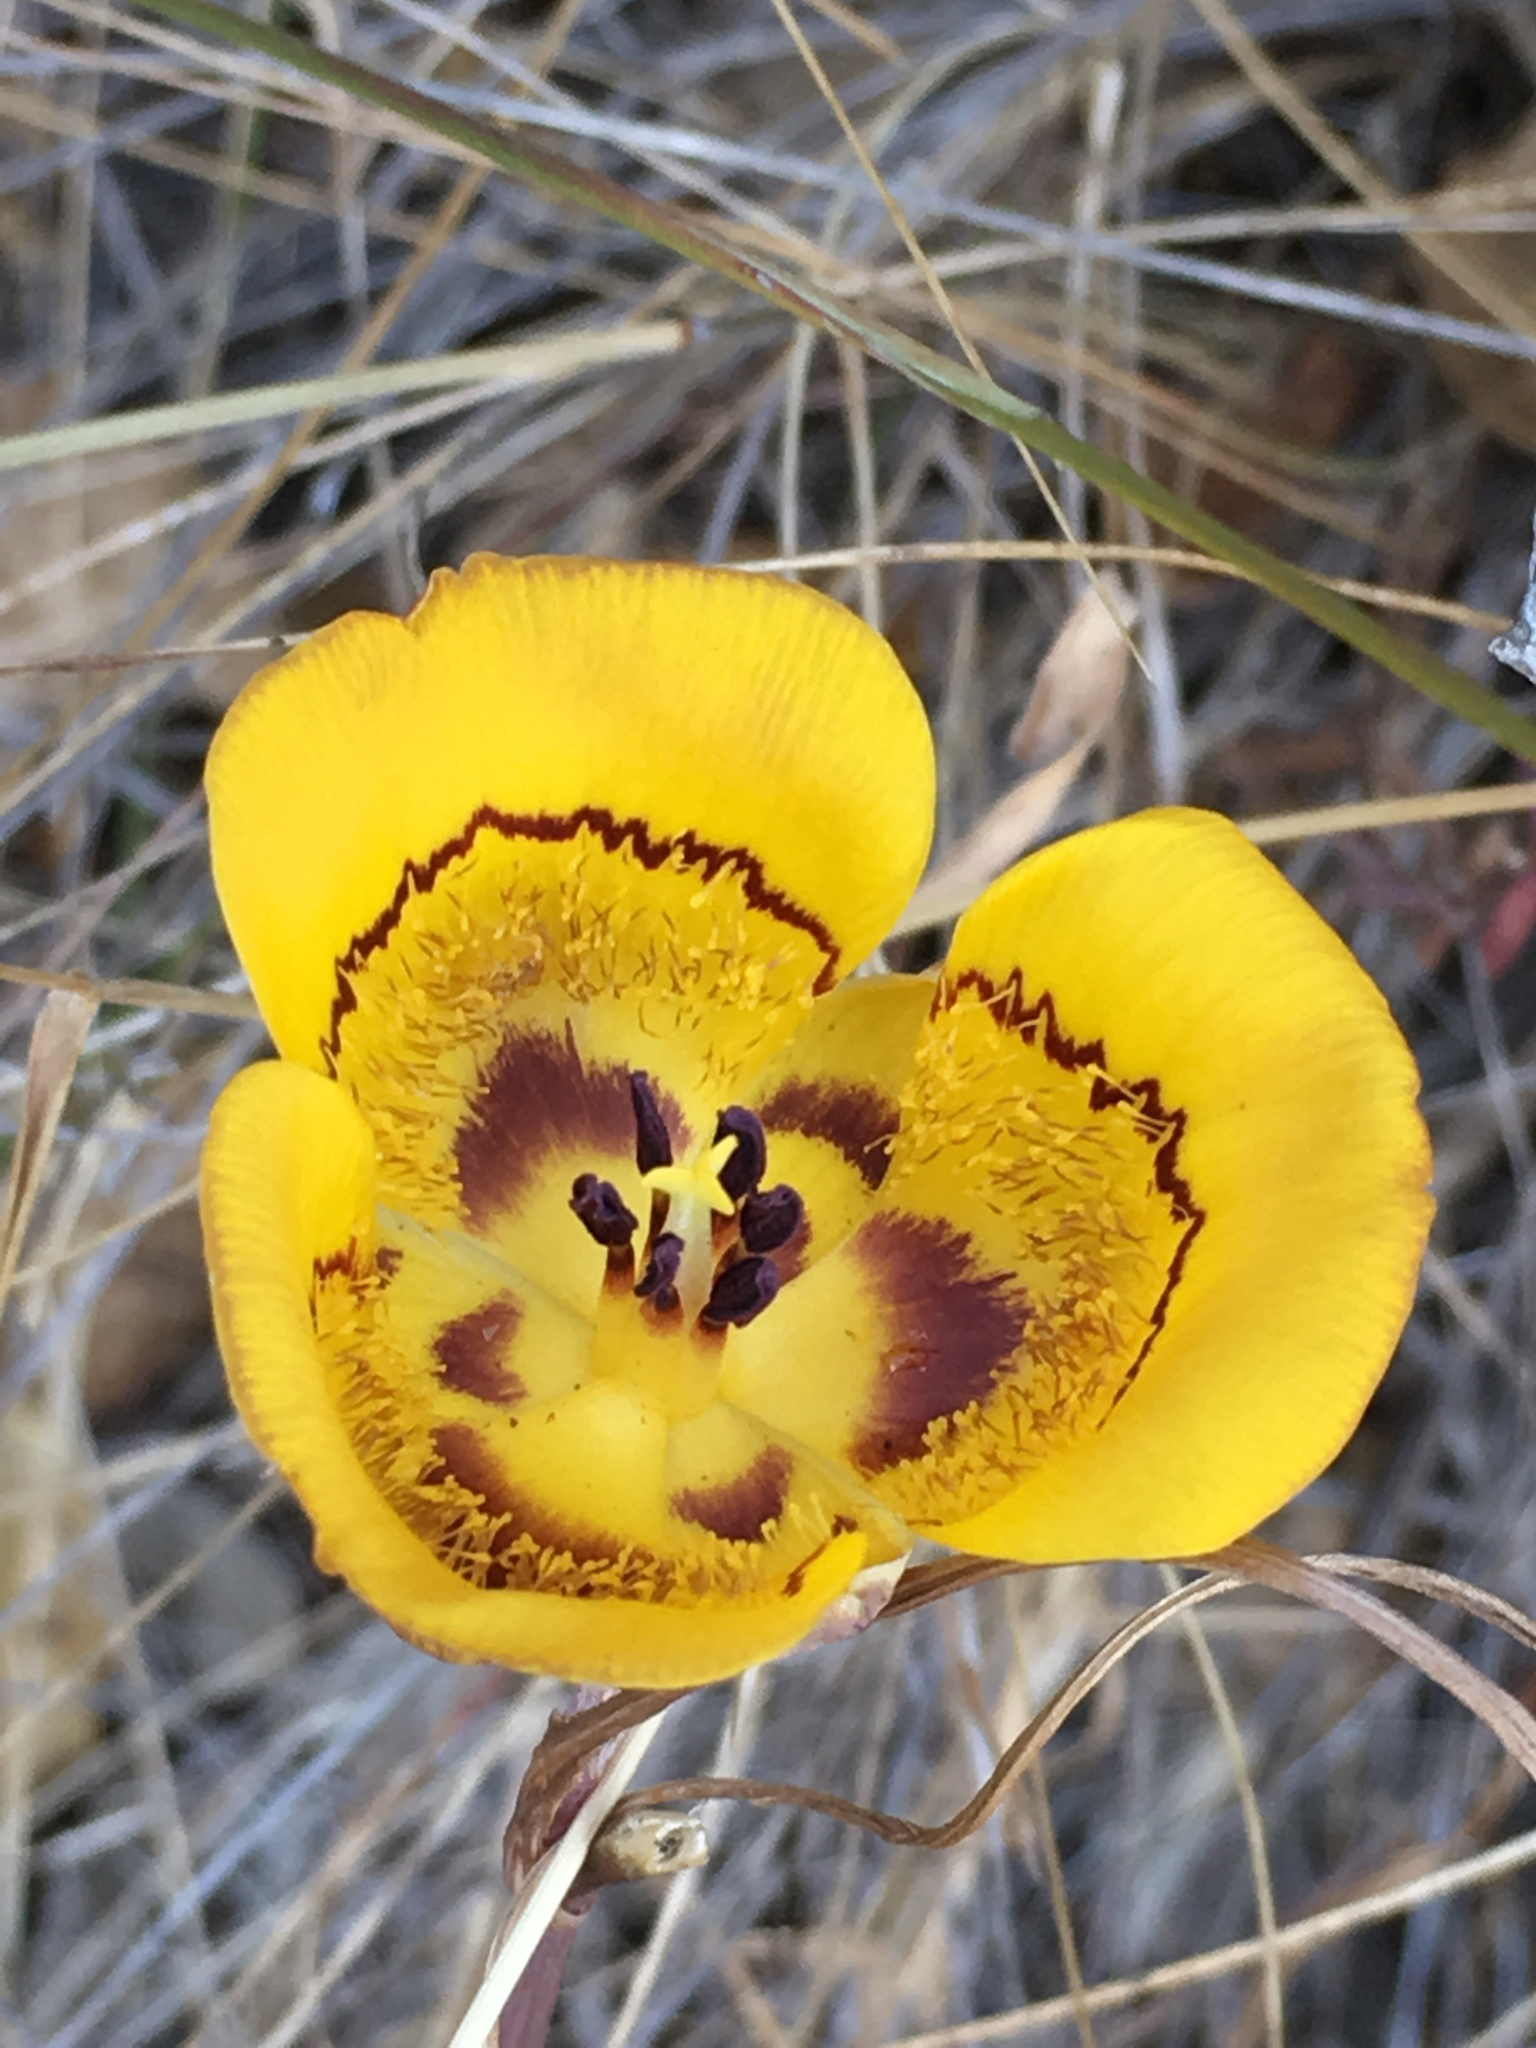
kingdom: Plantae
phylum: Tracheophyta
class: Liliopsida
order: Liliales
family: Liliaceae
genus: Calochortus
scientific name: Calochortus clavatus
